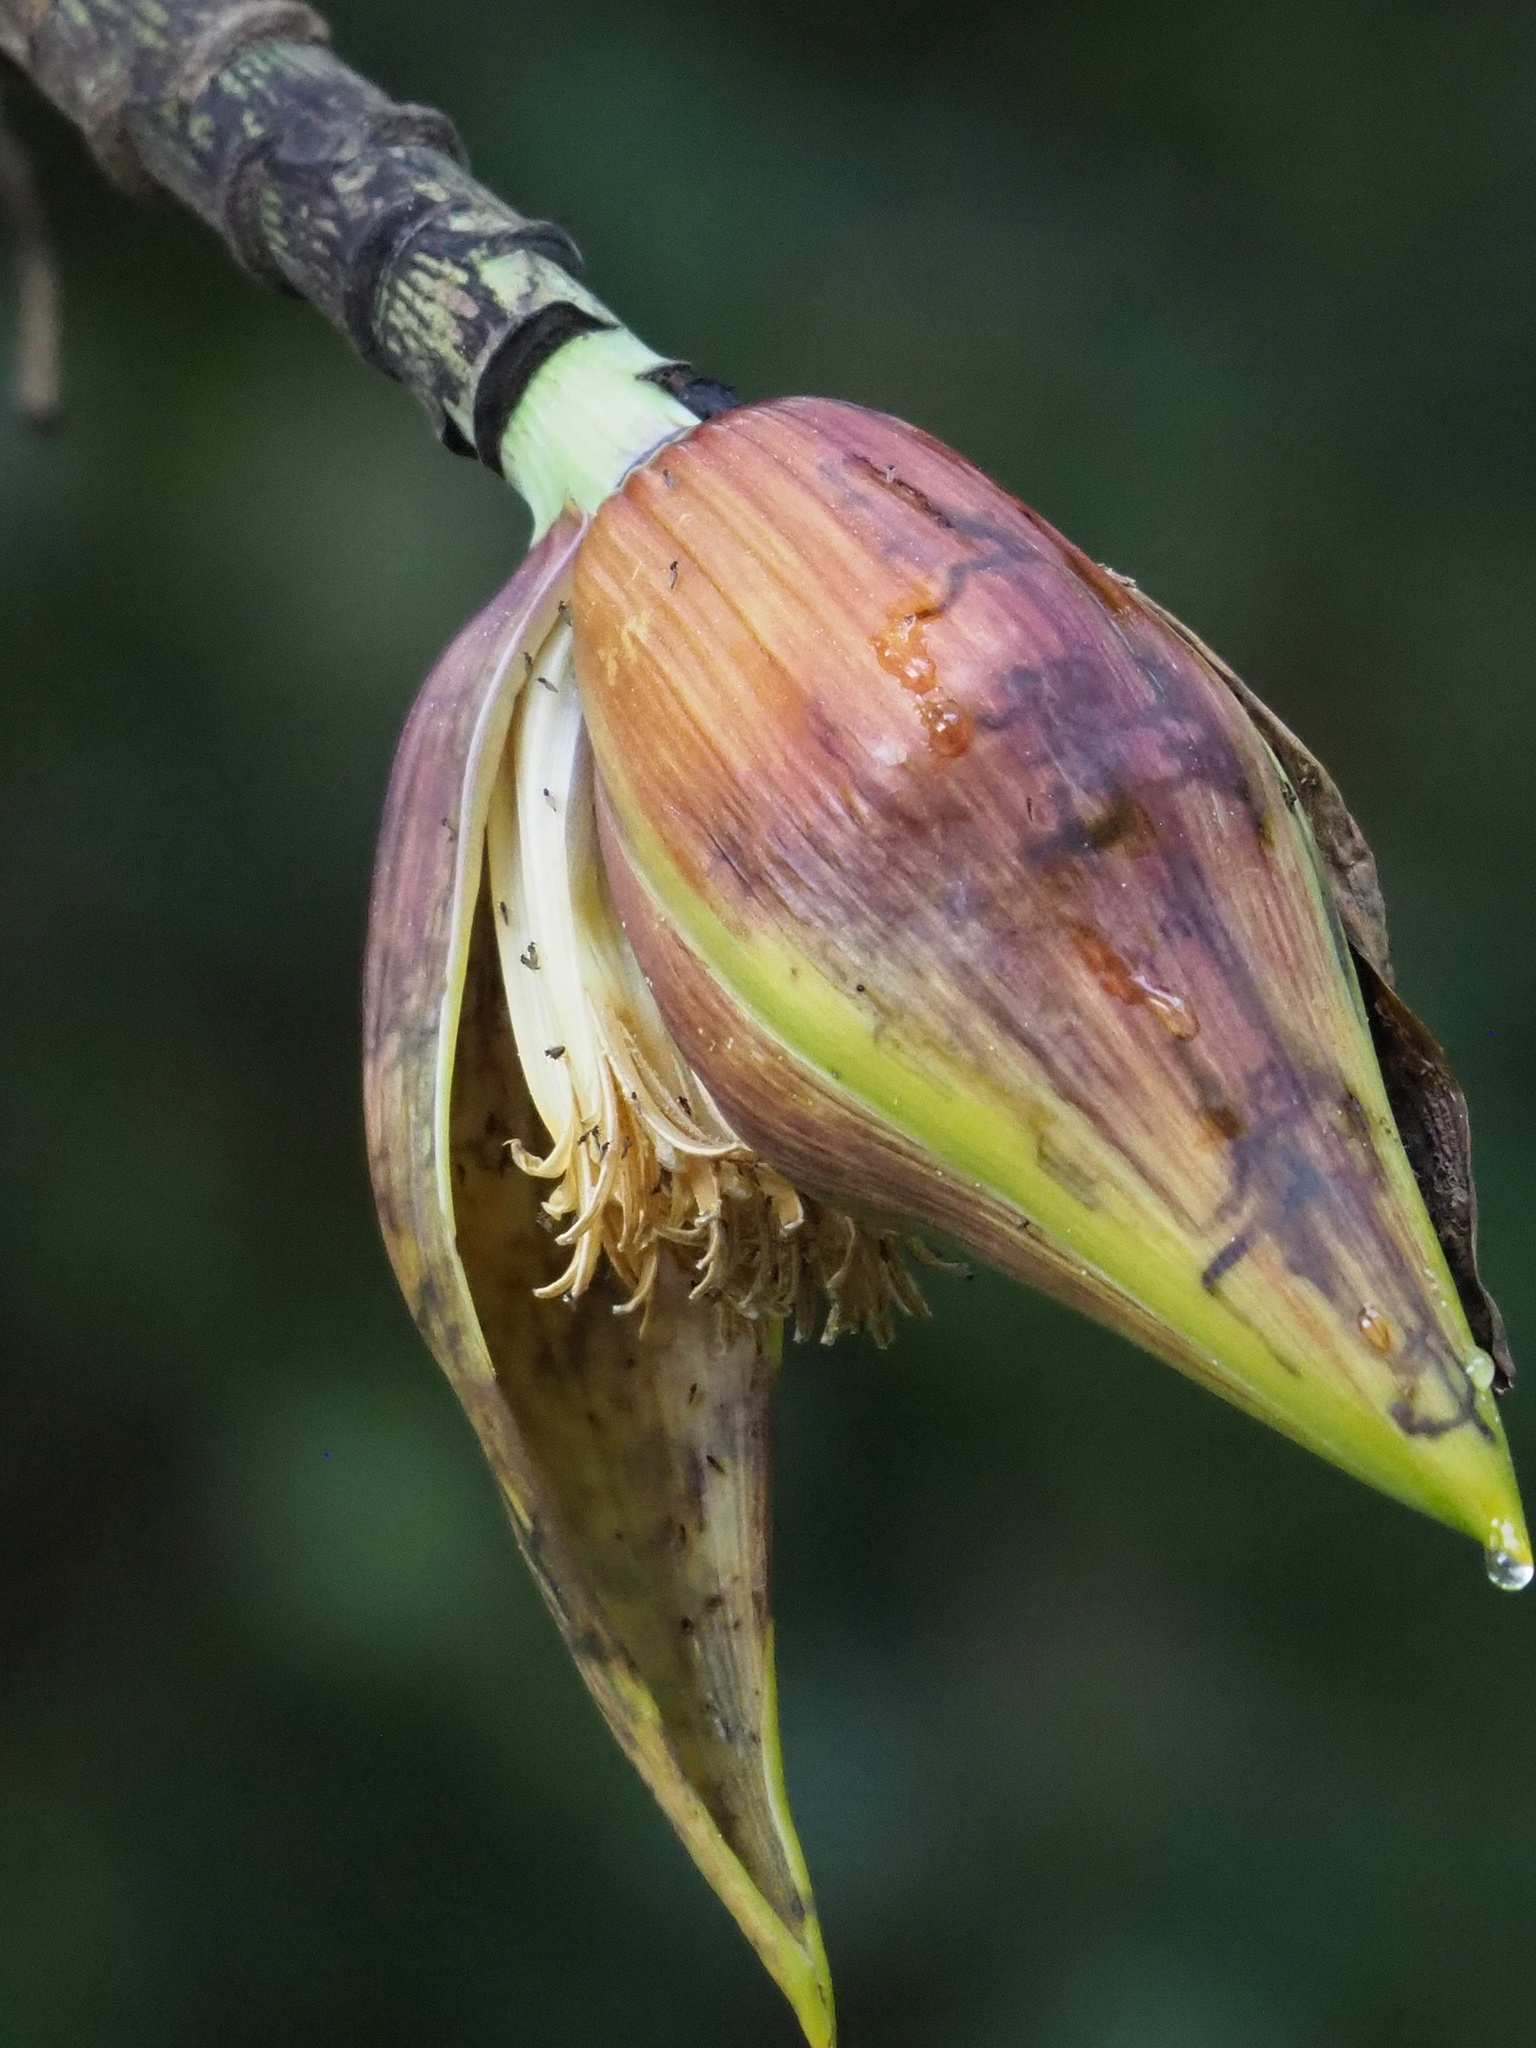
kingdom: Plantae
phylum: Tracheophyta
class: Liliopsida
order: Zingiberales
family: Musaceae
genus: Musa
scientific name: Musa itinerans
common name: Yunnan banana
